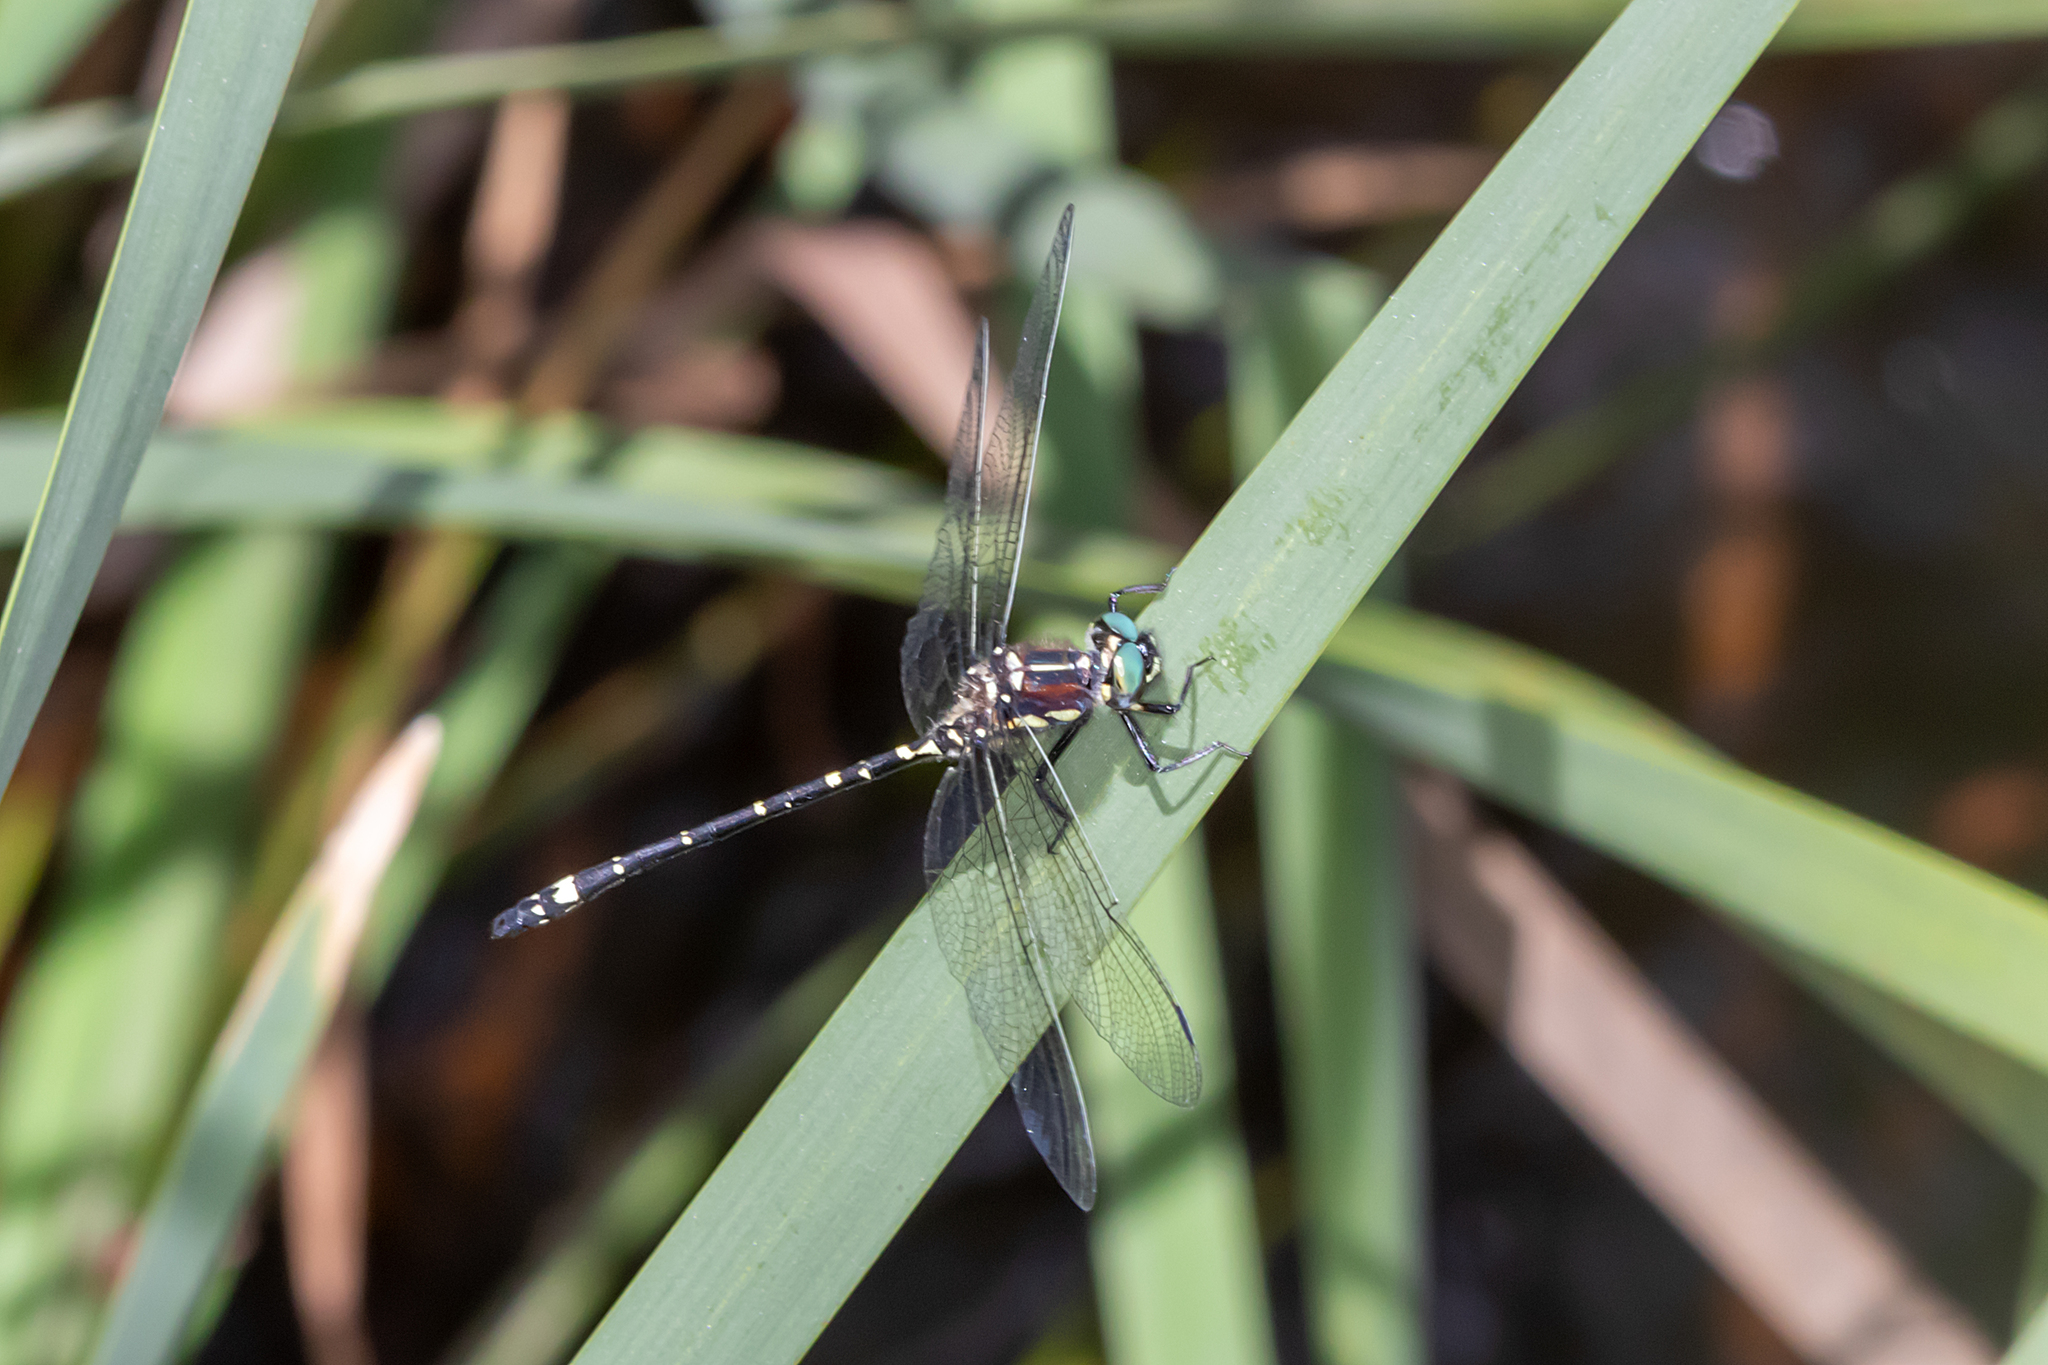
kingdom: Animalia
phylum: Arthropoda
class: Insecta
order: Odonata
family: Synthemistidae
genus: Eusynthemis
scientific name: Eusynthemis brevistyla
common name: Small tigertail
